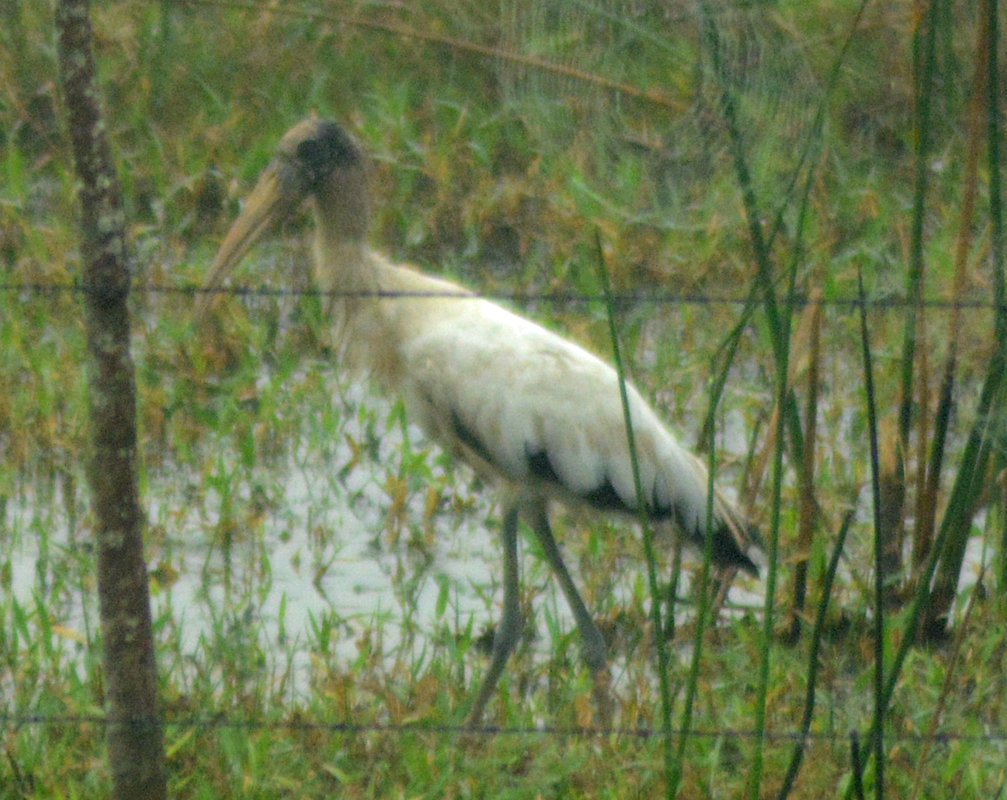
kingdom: Animalia
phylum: Chordata
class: Aves
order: Ciconiiformes
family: Ciconiidae
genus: Mycteria
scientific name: Mycteria americana
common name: Wood stork
